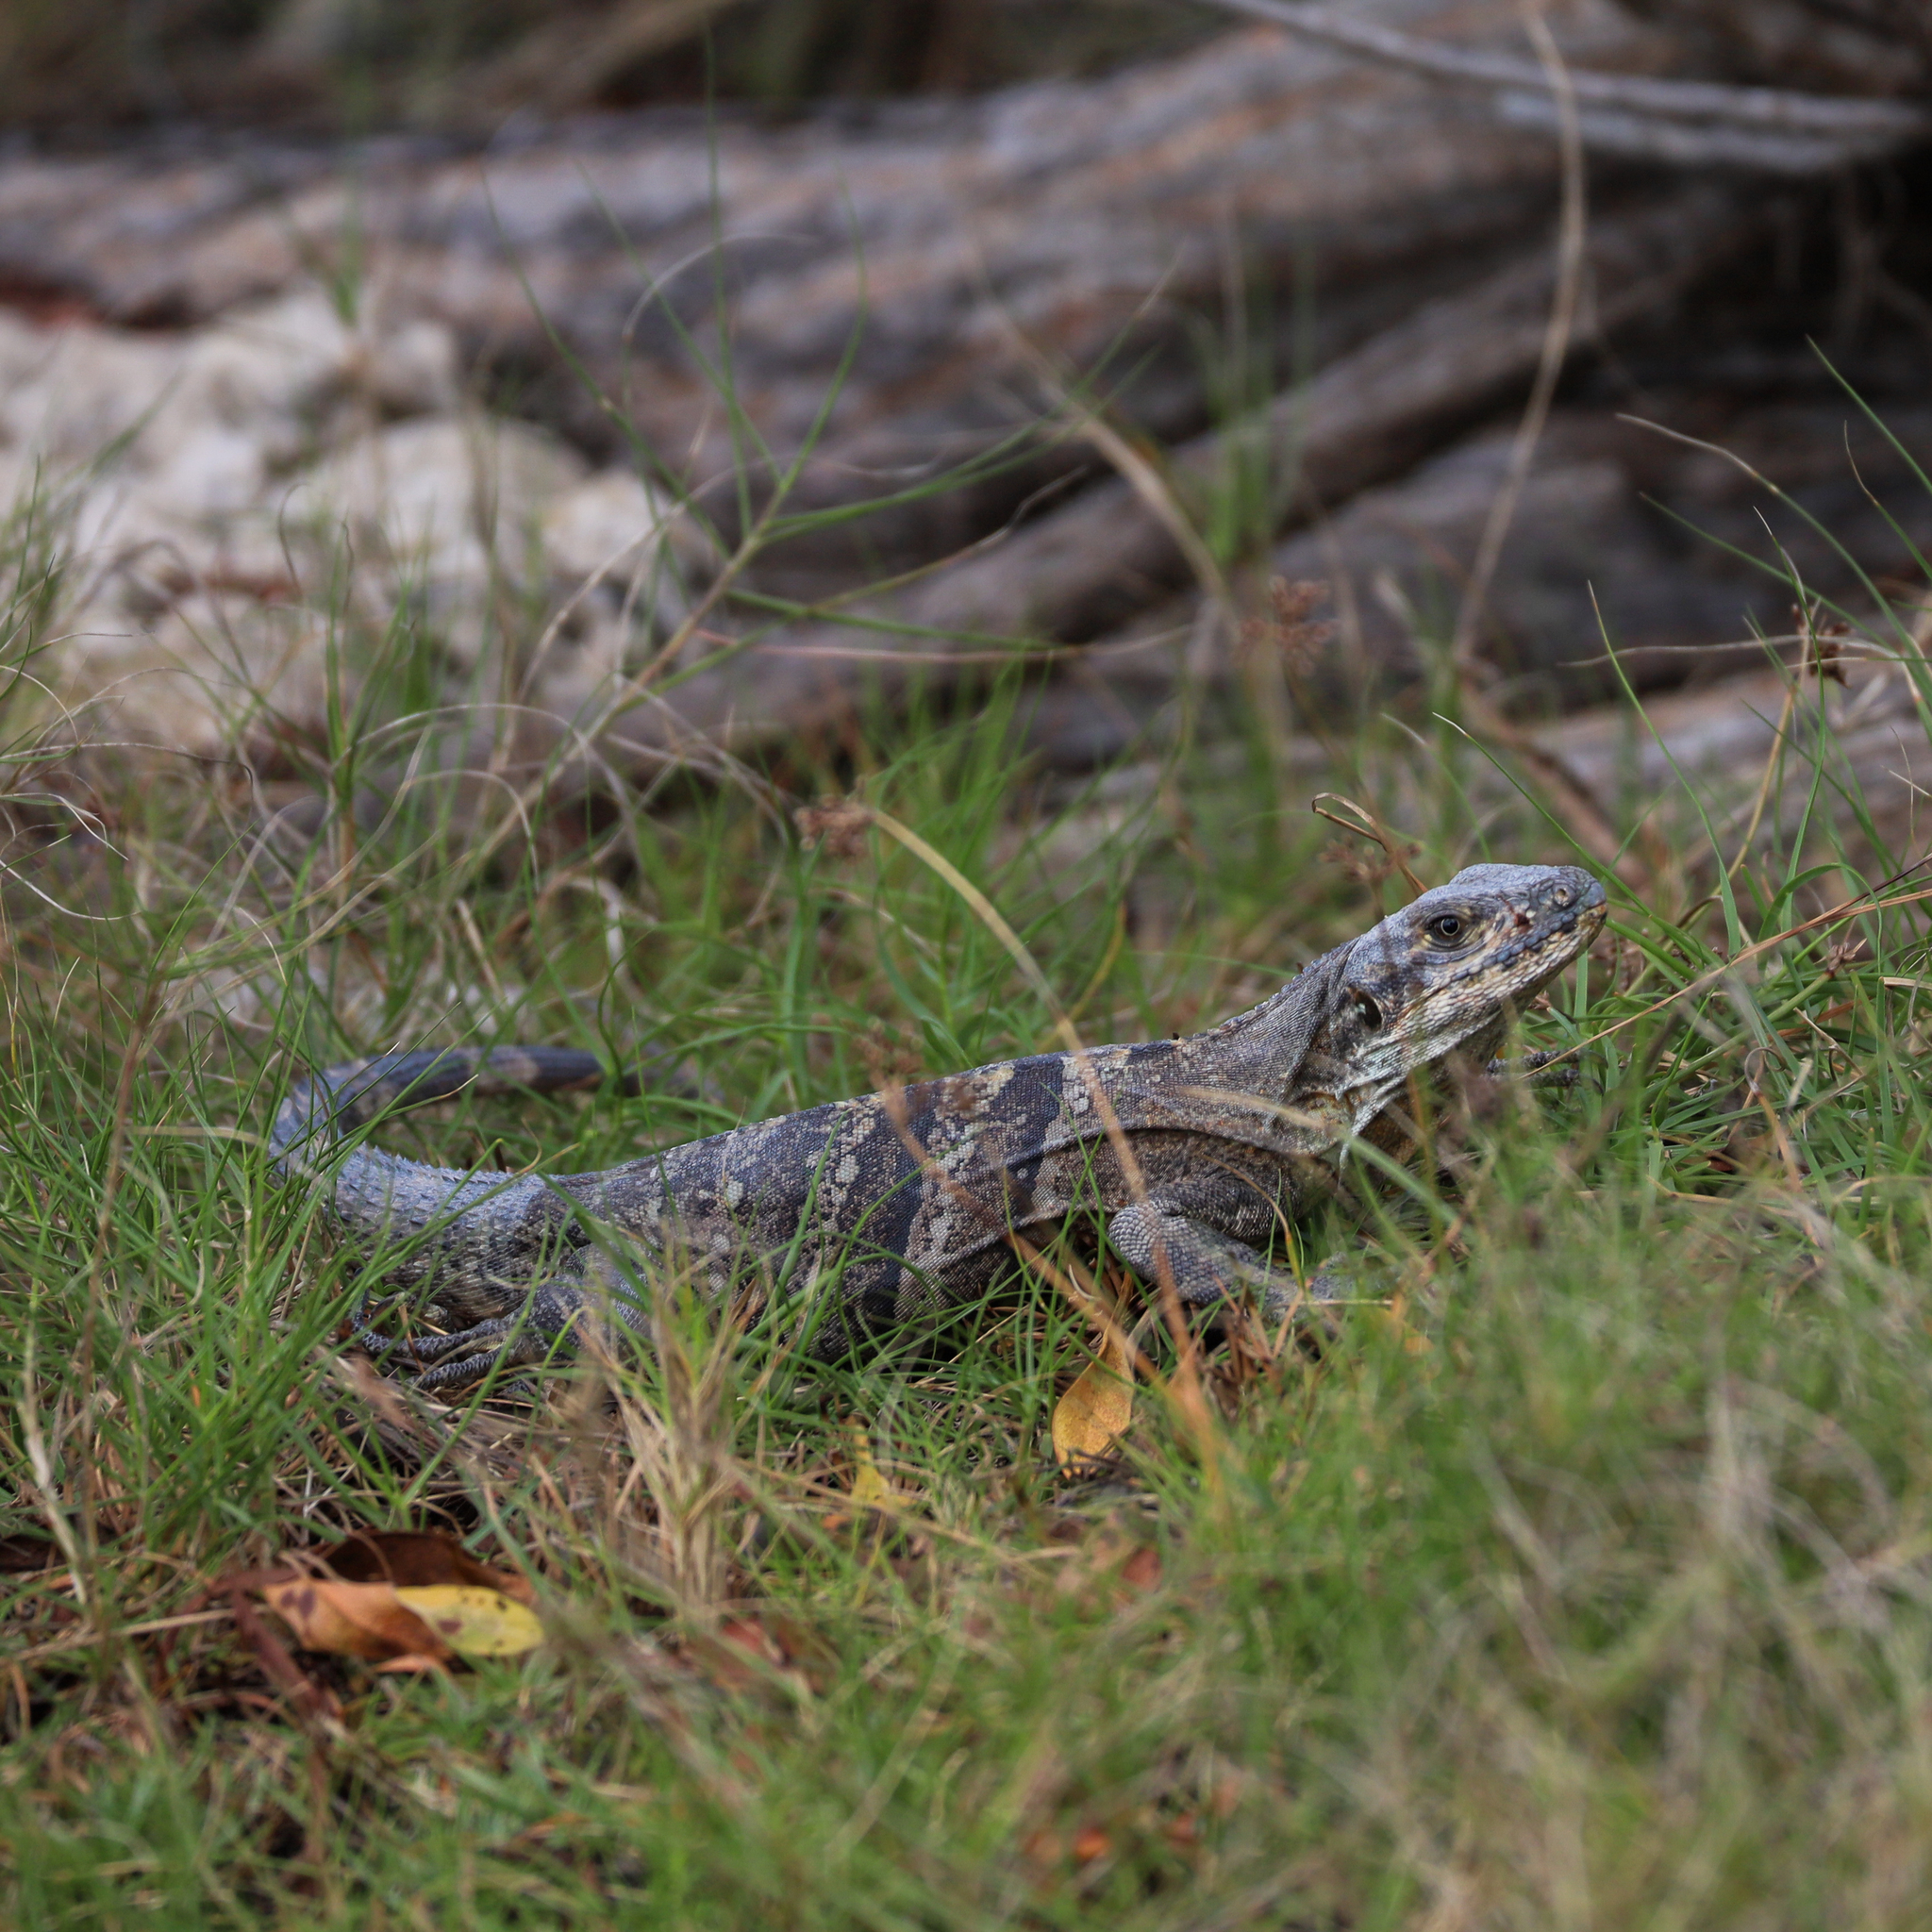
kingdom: Animalia
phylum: Chordata
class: Squamata
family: Iguanidae
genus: Ctenosaura
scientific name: Ctenosaura similis
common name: Black spiny-tailed iguana
